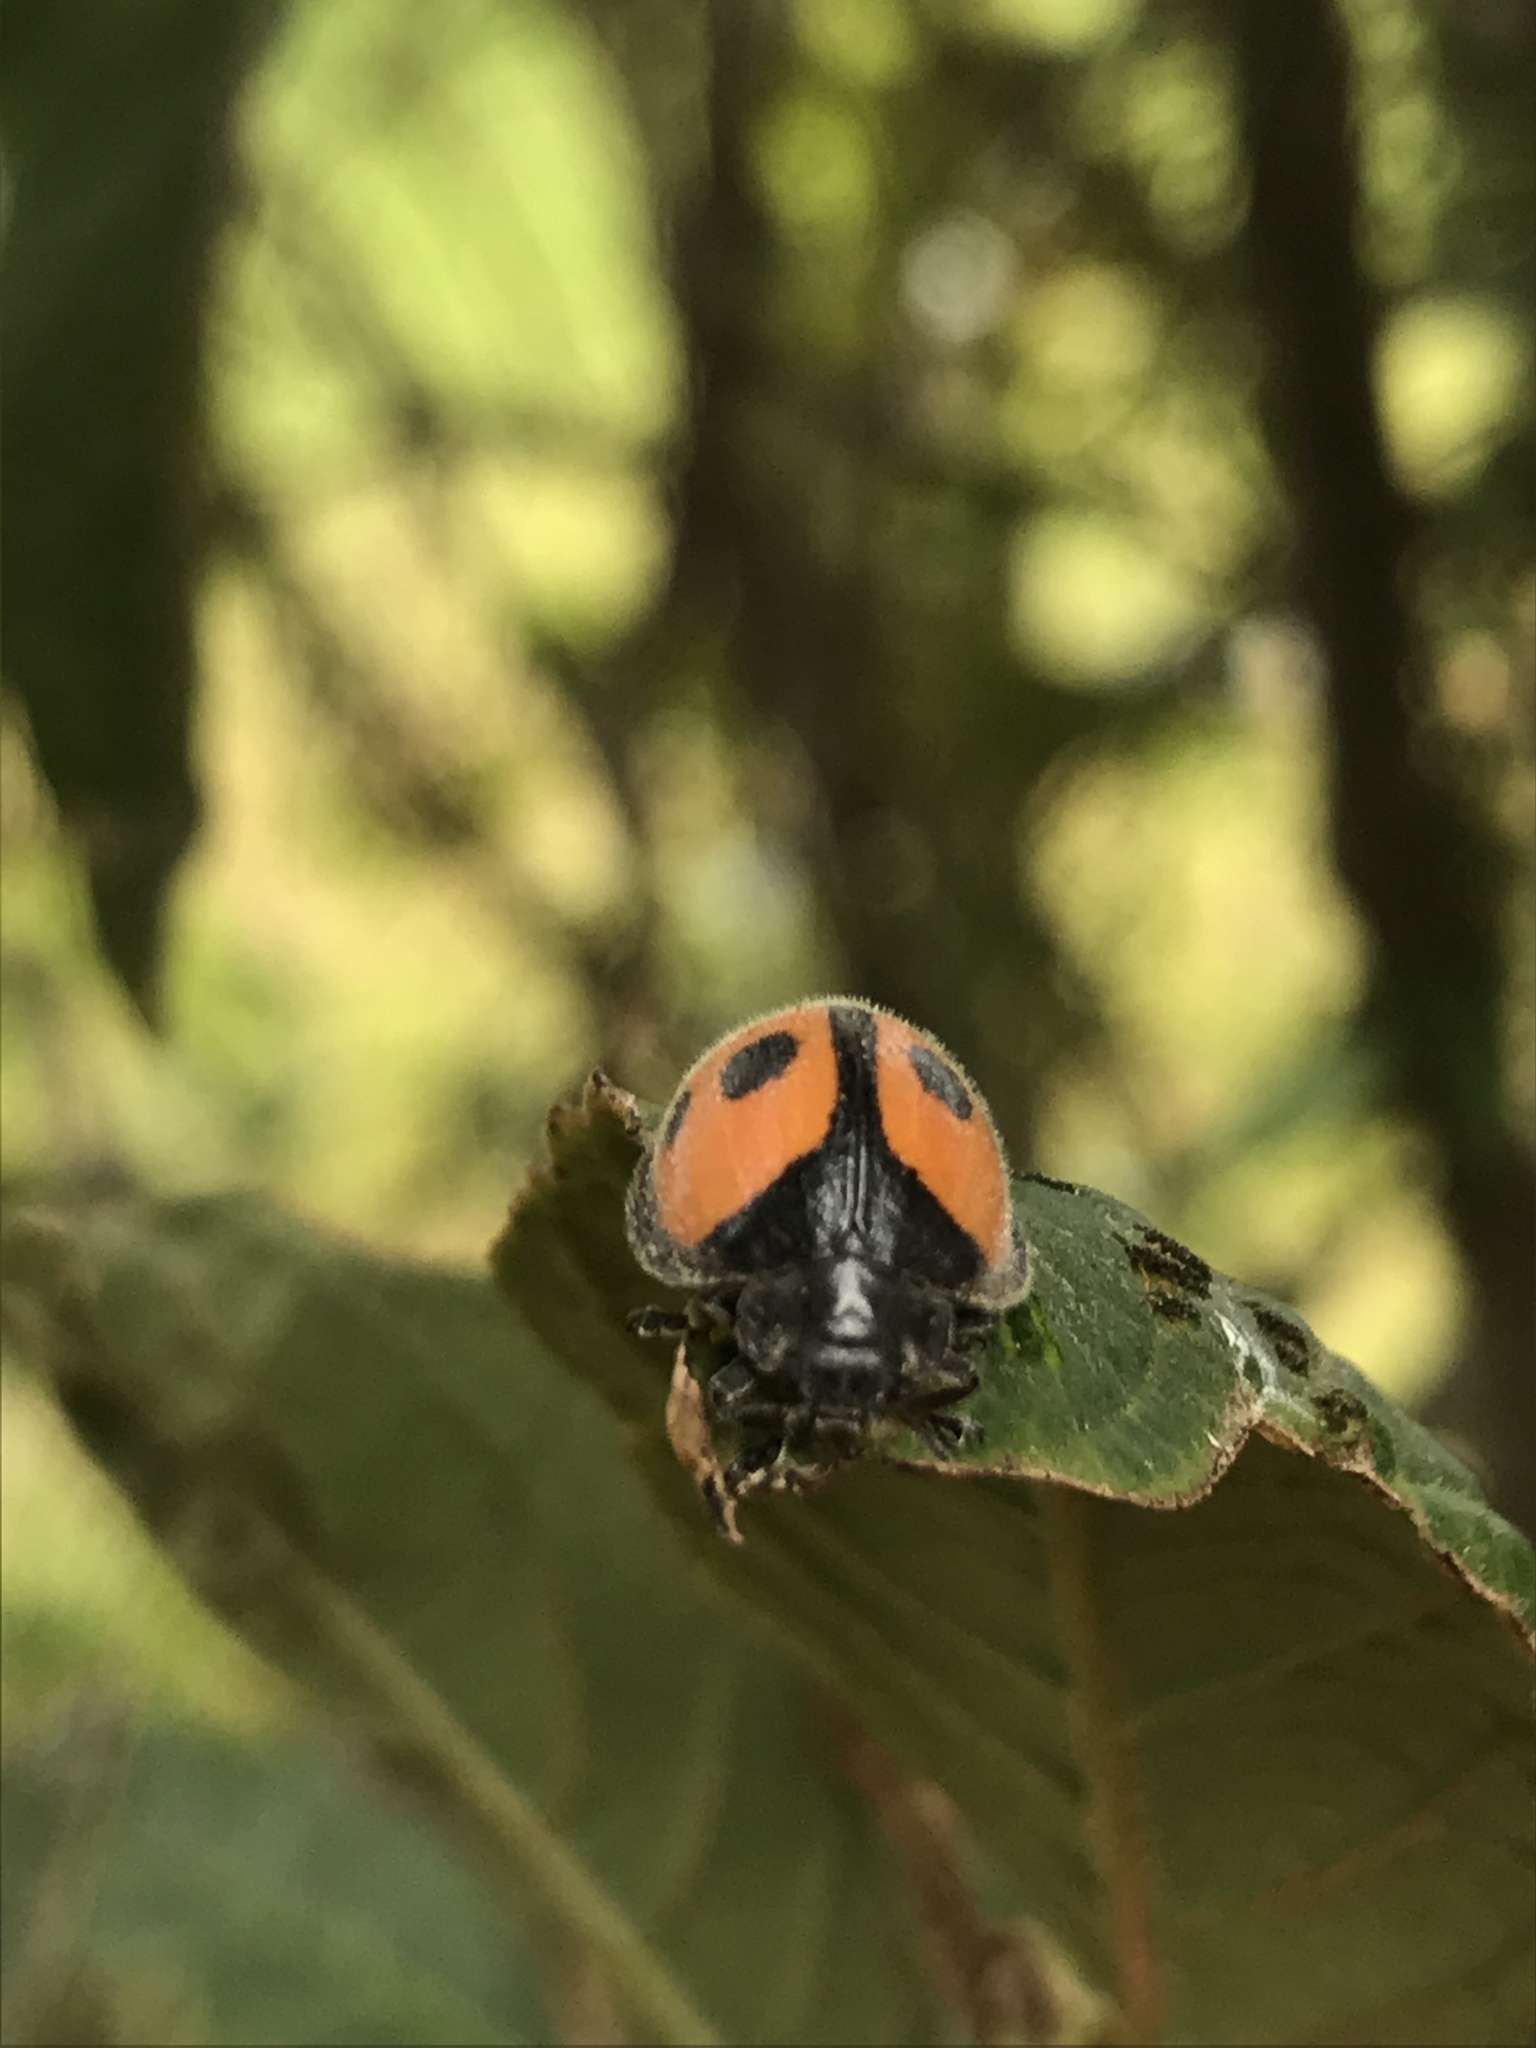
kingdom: Animalia
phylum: Arthropoda
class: Insecta
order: Coleoptera
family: Coccinellidae
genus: Epilachna
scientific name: Epilachna
